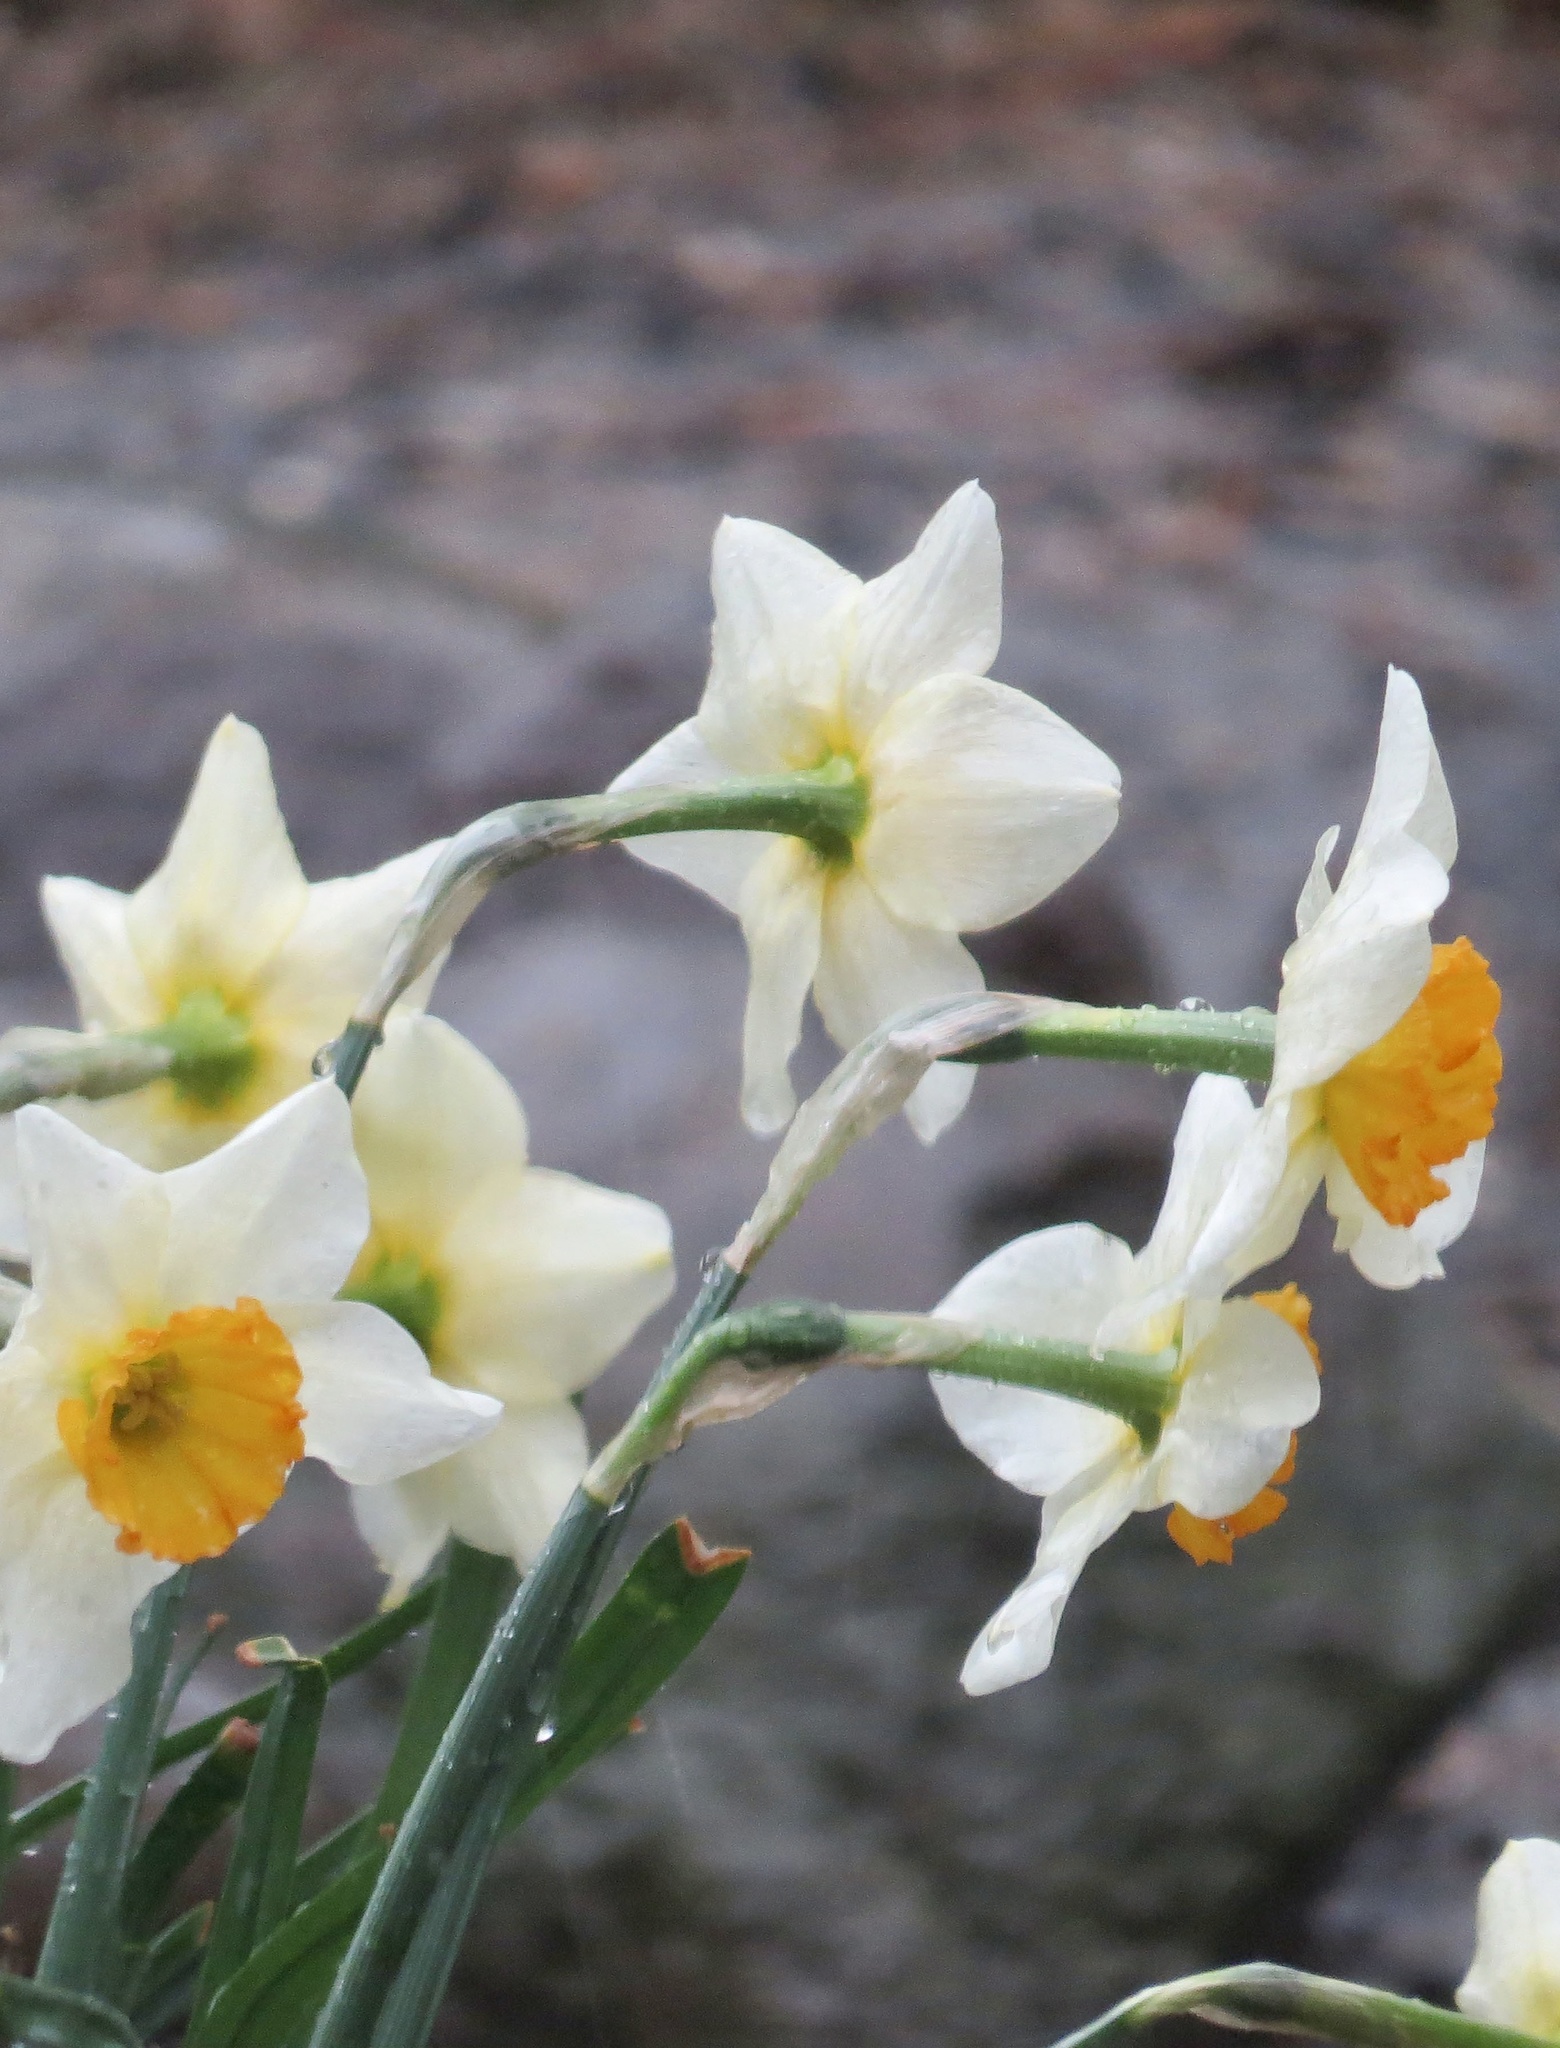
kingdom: Plantae
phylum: Tracheophyta
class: Liliopsida
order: Asparagales
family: Amaryllidaceae
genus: Narcissus
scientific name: Narcissus poeticus
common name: Pheasant's-eye daffodil
